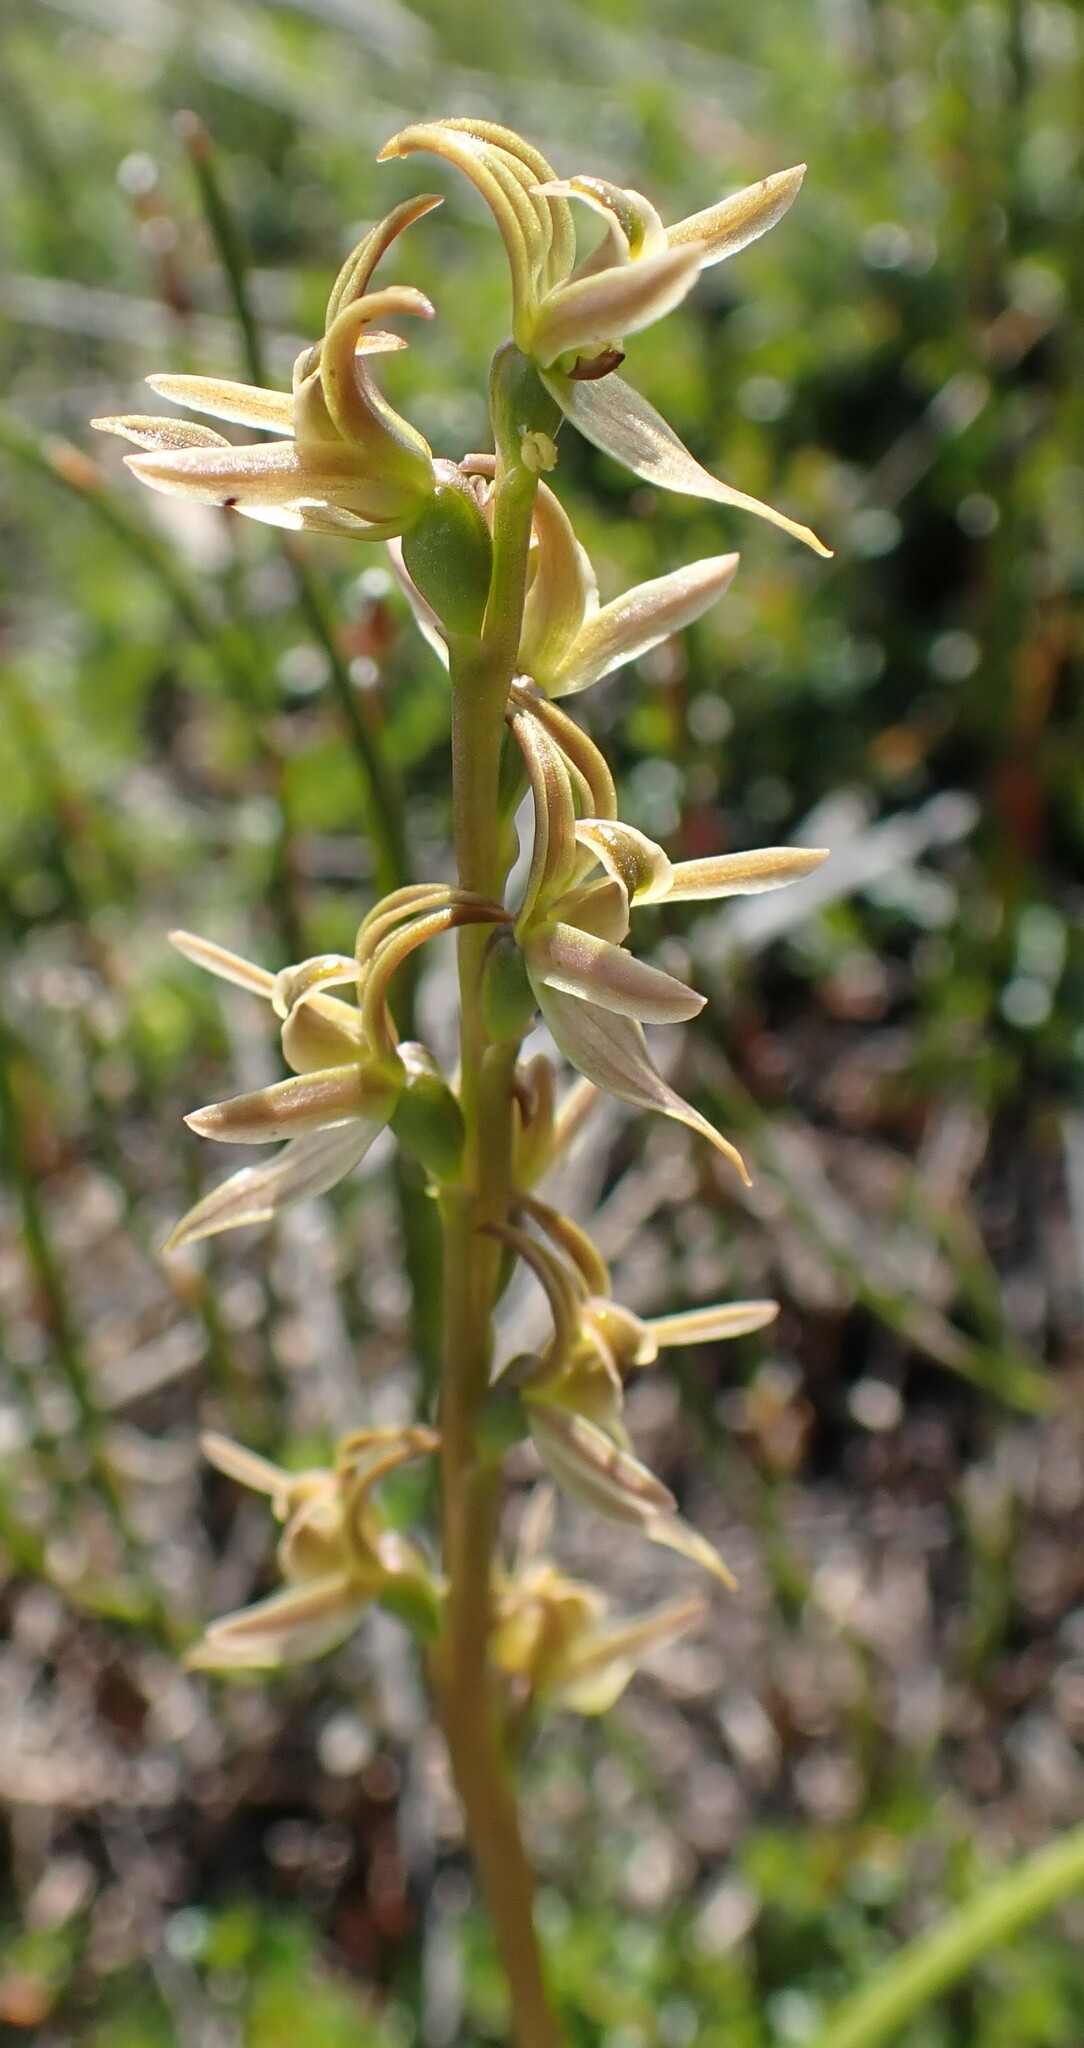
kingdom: Plantae
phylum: Tracheophyta
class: Liliopsida
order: Asparagales
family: Orchidaceae
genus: Prasophyllum
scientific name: Prasophyllum rostratum
